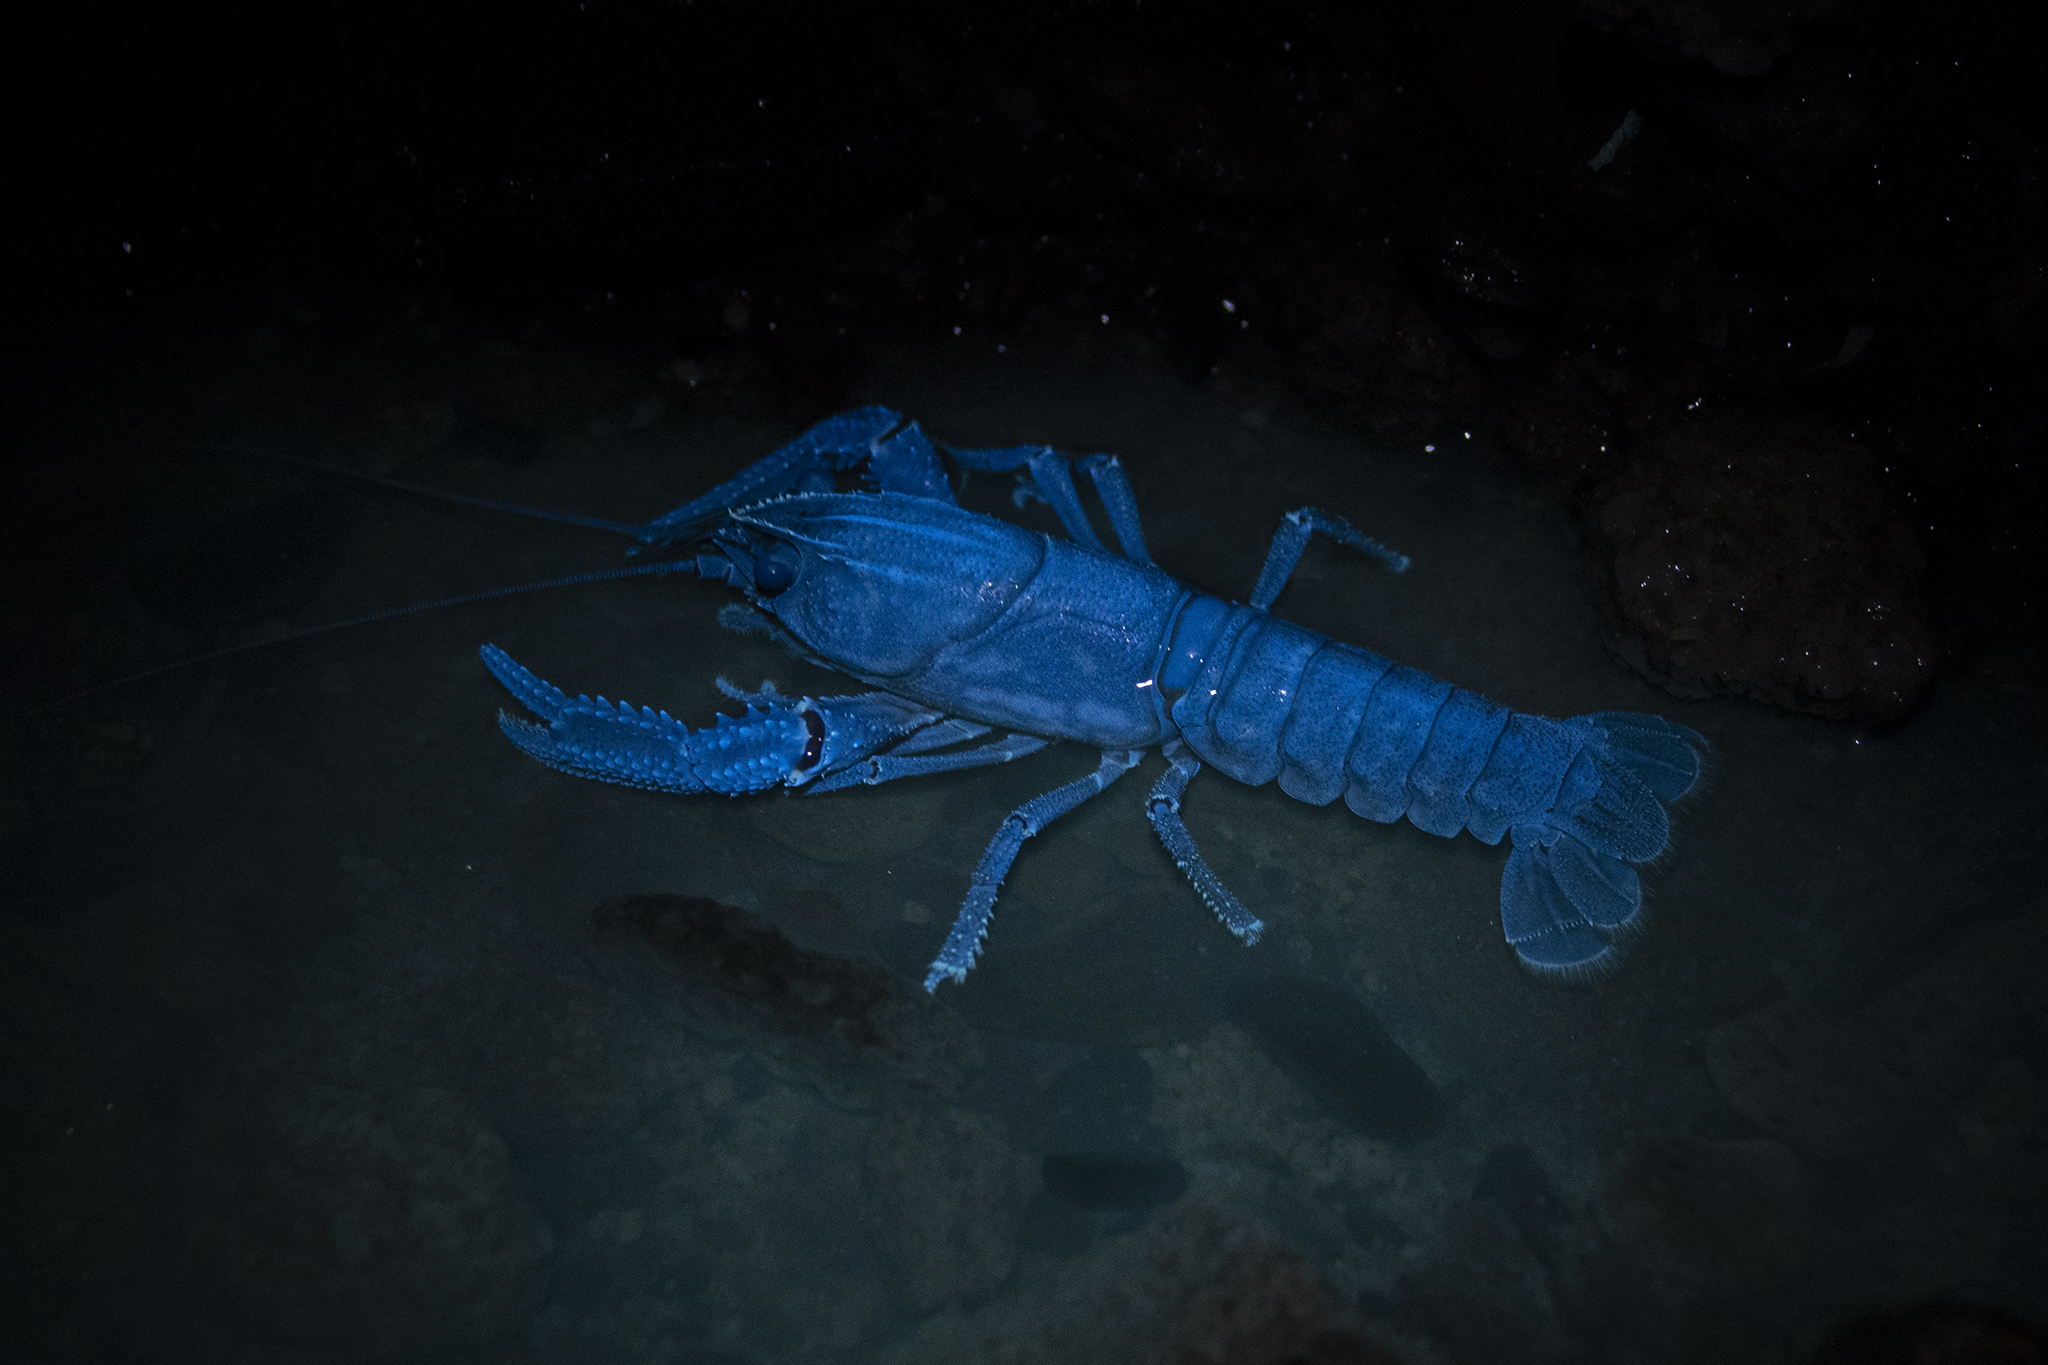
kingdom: Animalia
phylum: Arthropoda
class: Malacostraca
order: Decapoda
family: Parastacidae
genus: Paranephrops
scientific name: Paranephrops planifrons
